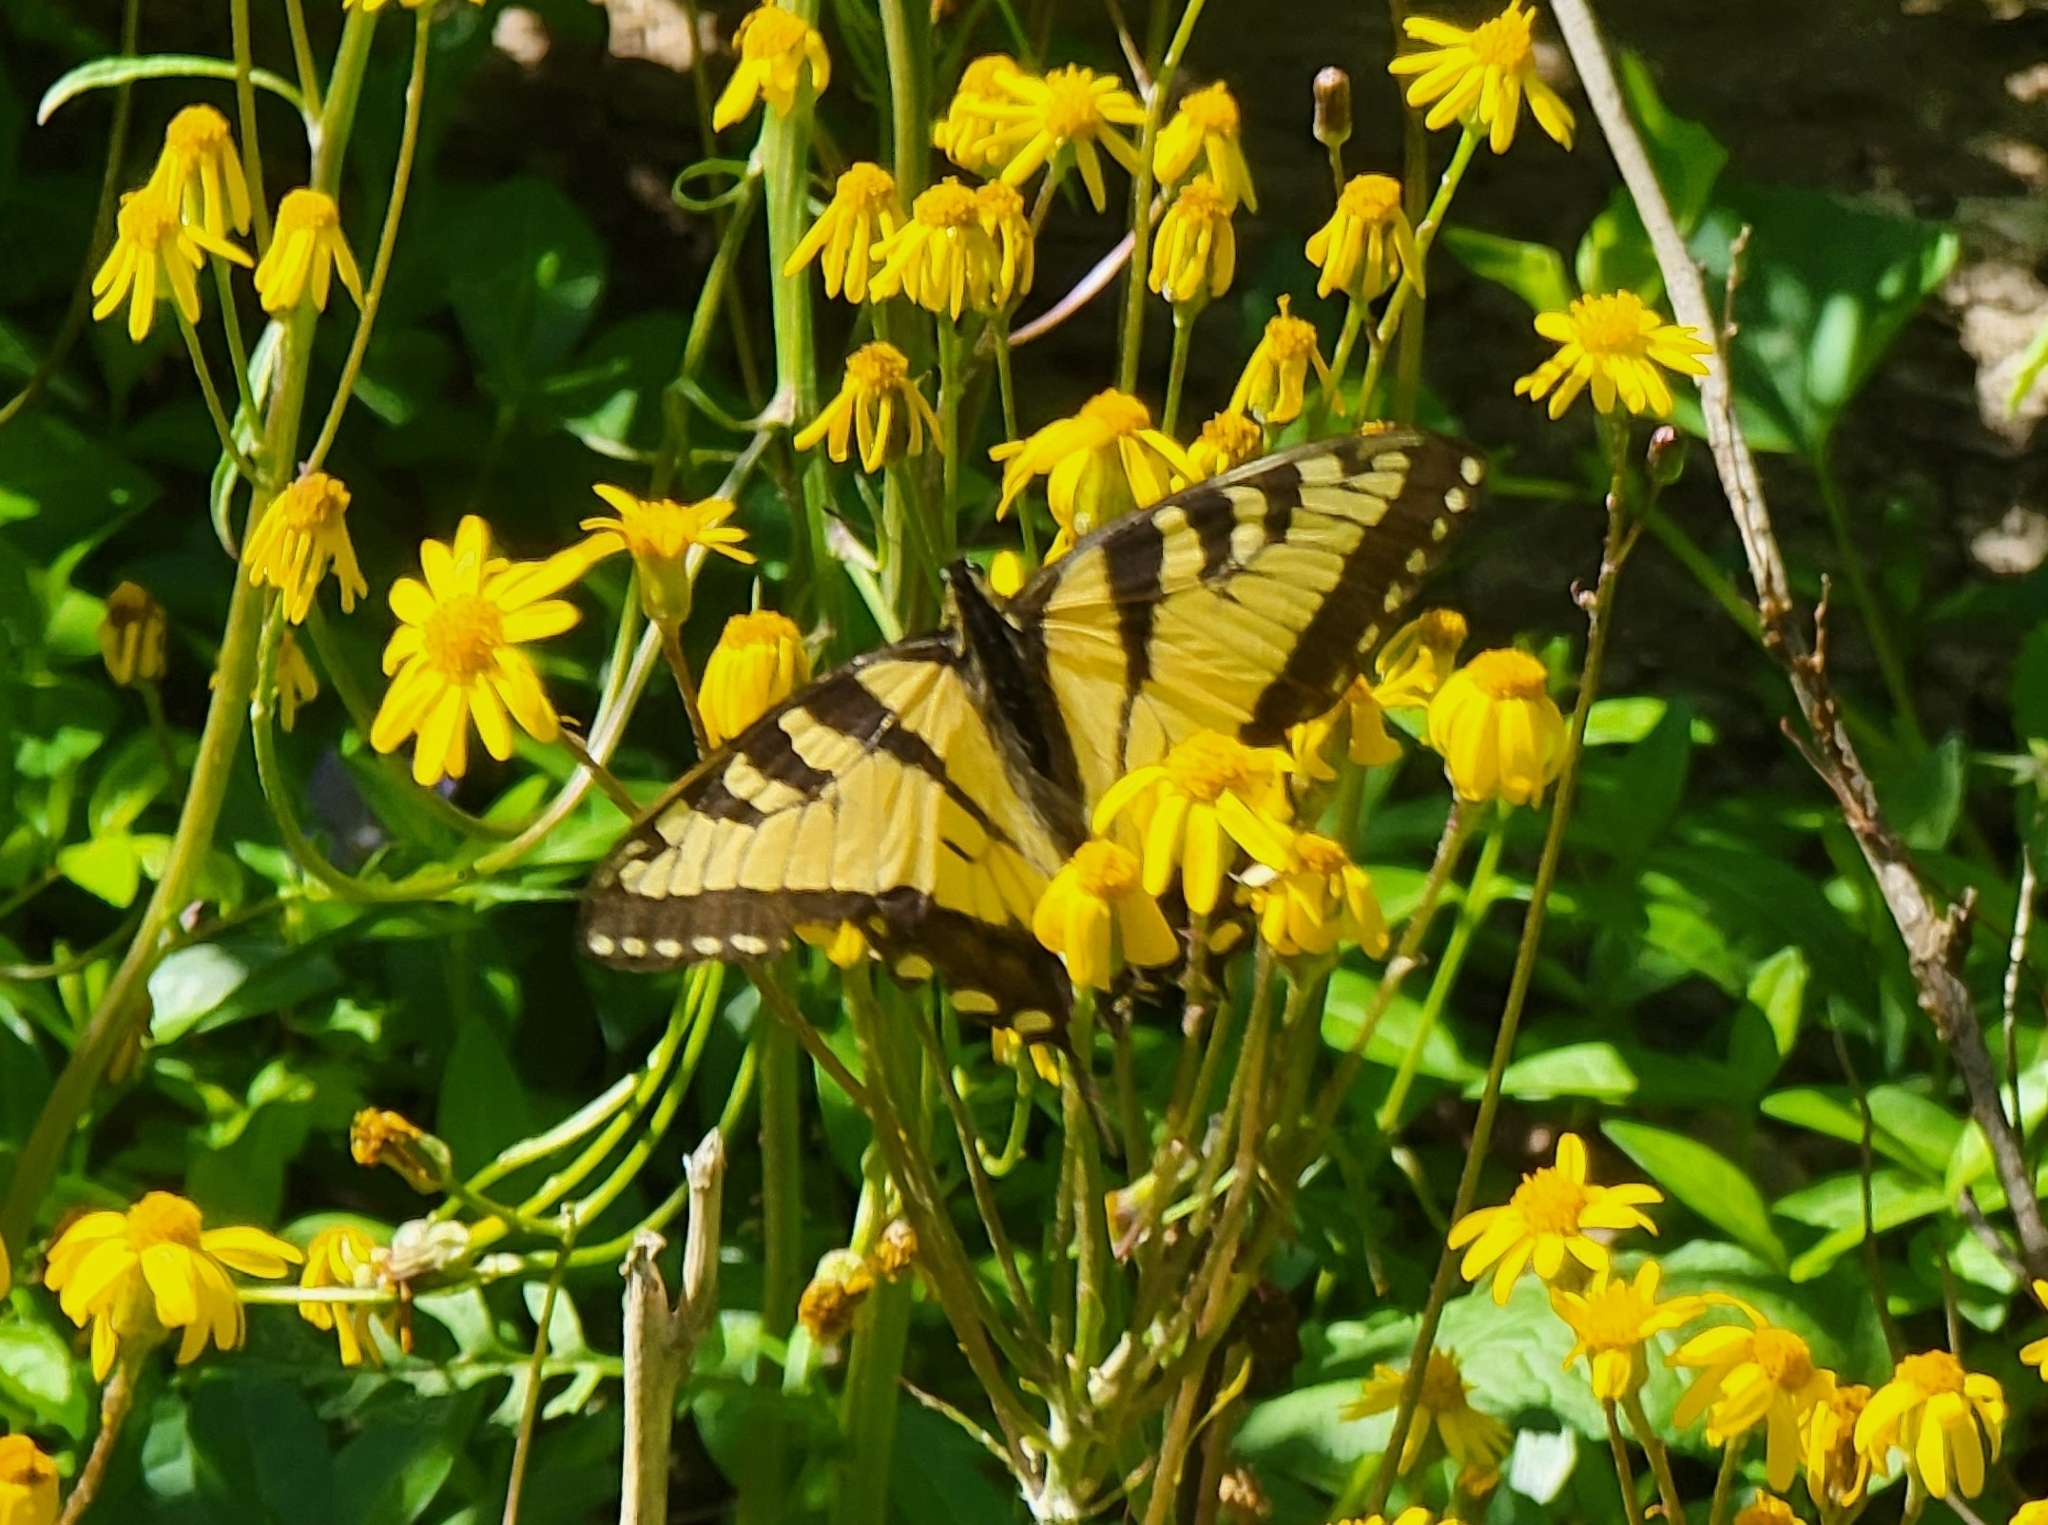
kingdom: Animalia
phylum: Arthropoda
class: Insecta
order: Lepidoptera
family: Papilionidae
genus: Papilio
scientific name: Papilio glaucus
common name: Tiger swallowtail
